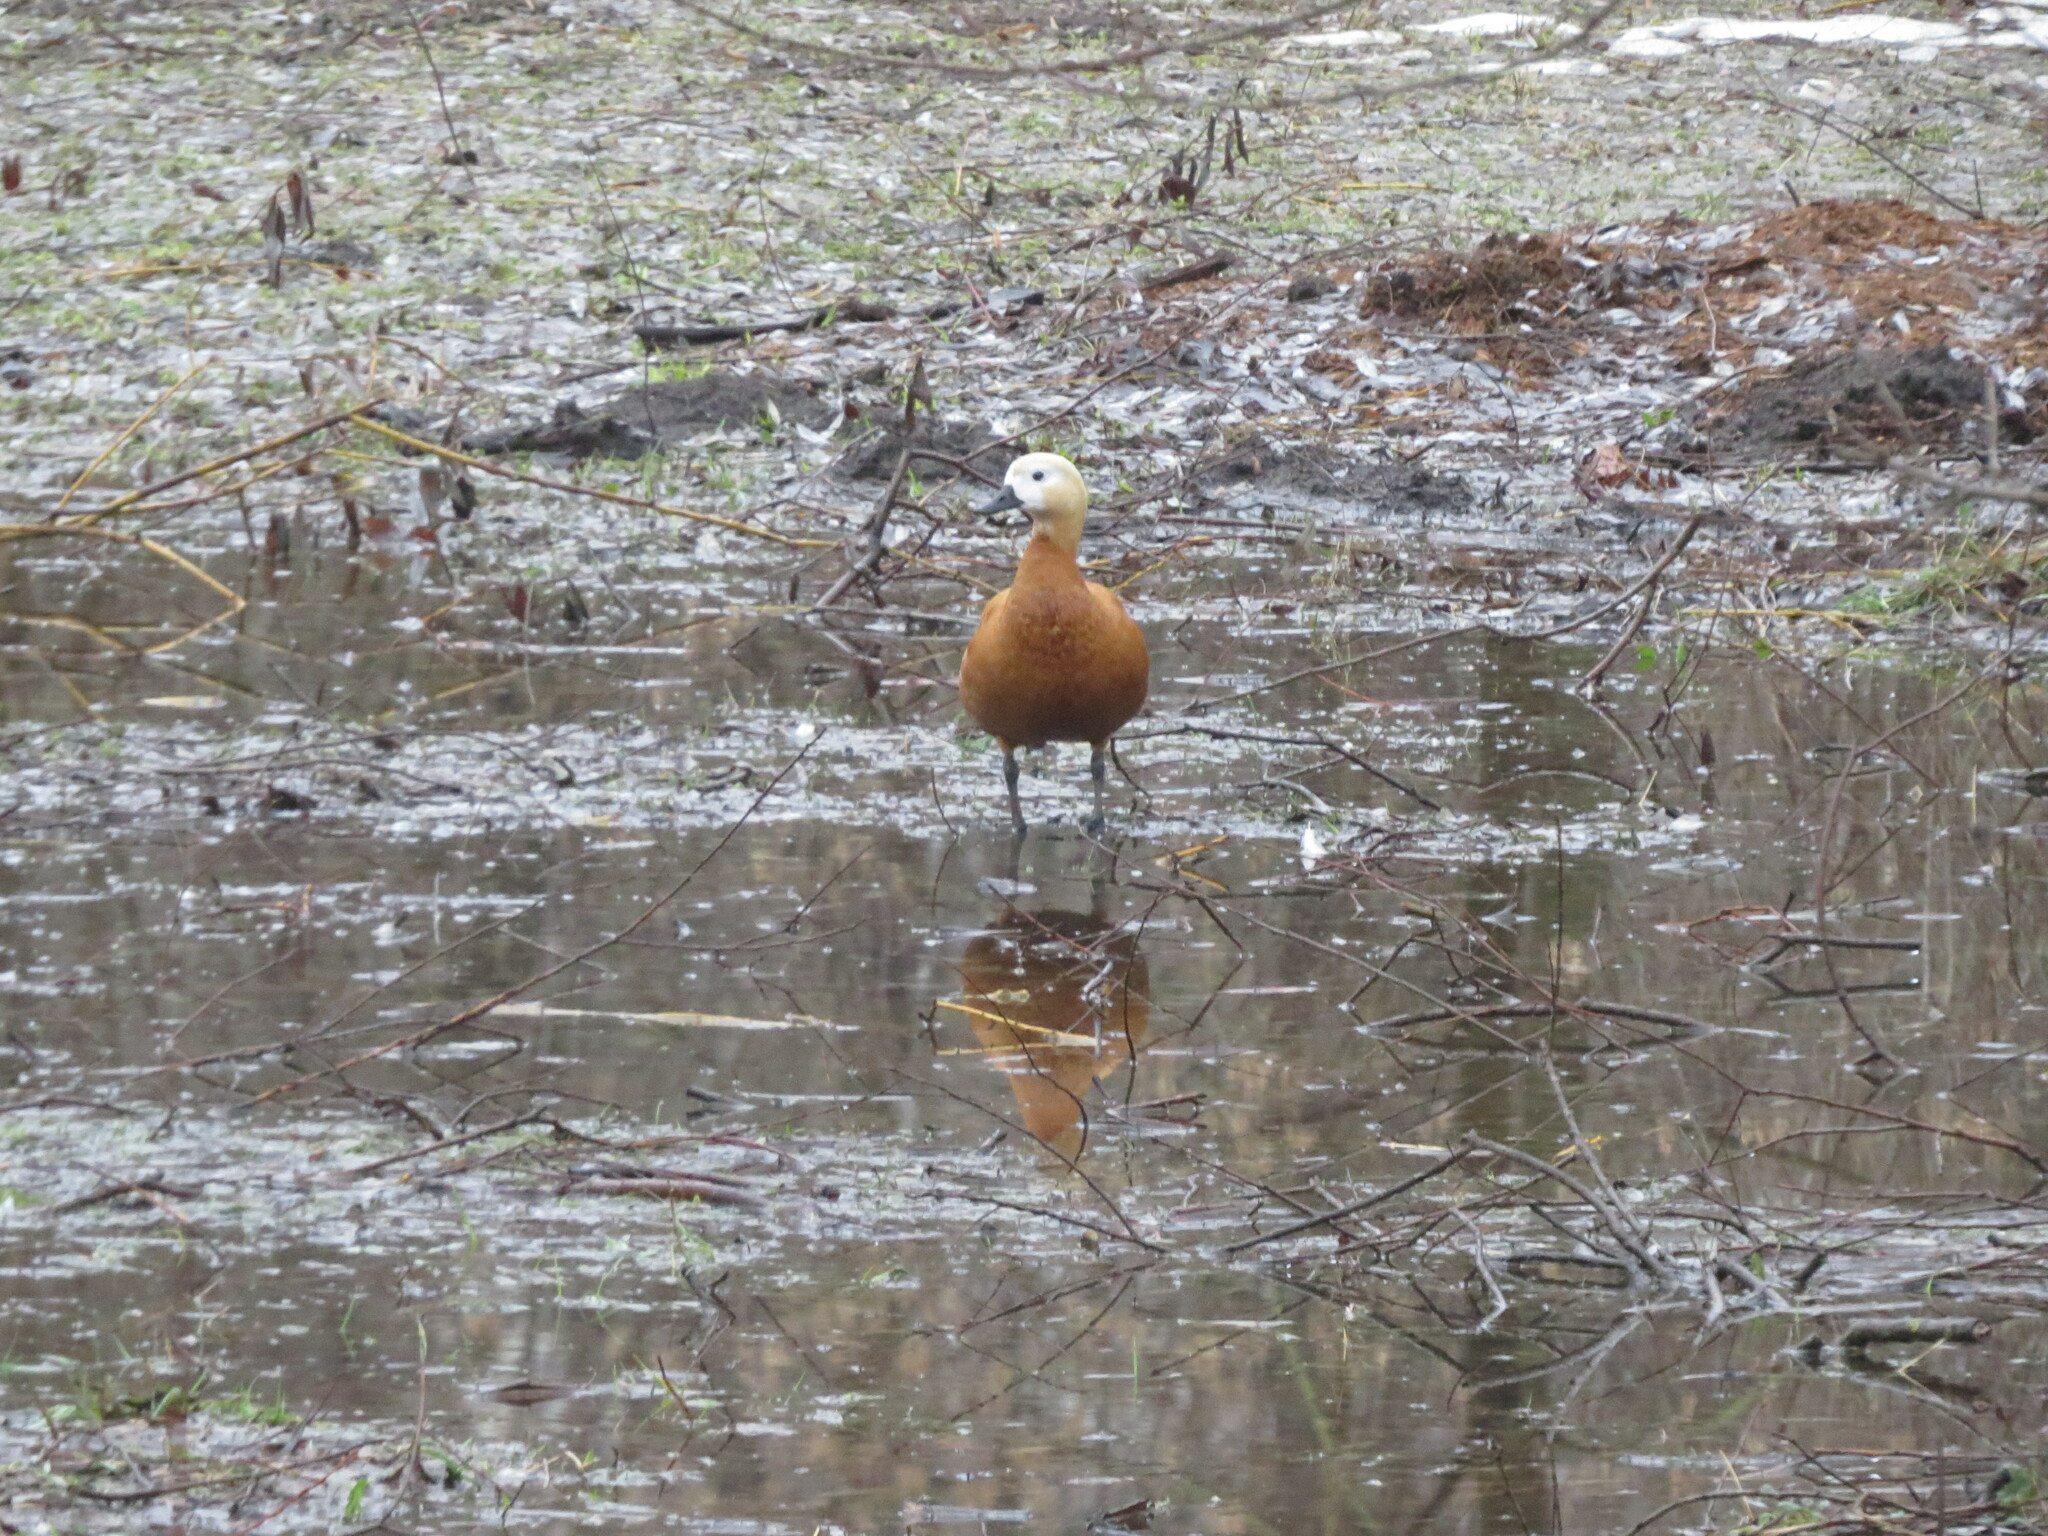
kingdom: Animalia
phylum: Chordata
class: Aves
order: Anseriformes
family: Anatidae
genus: Tadorna
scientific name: Tadorna ferruginea
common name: Ruddy shelduck
